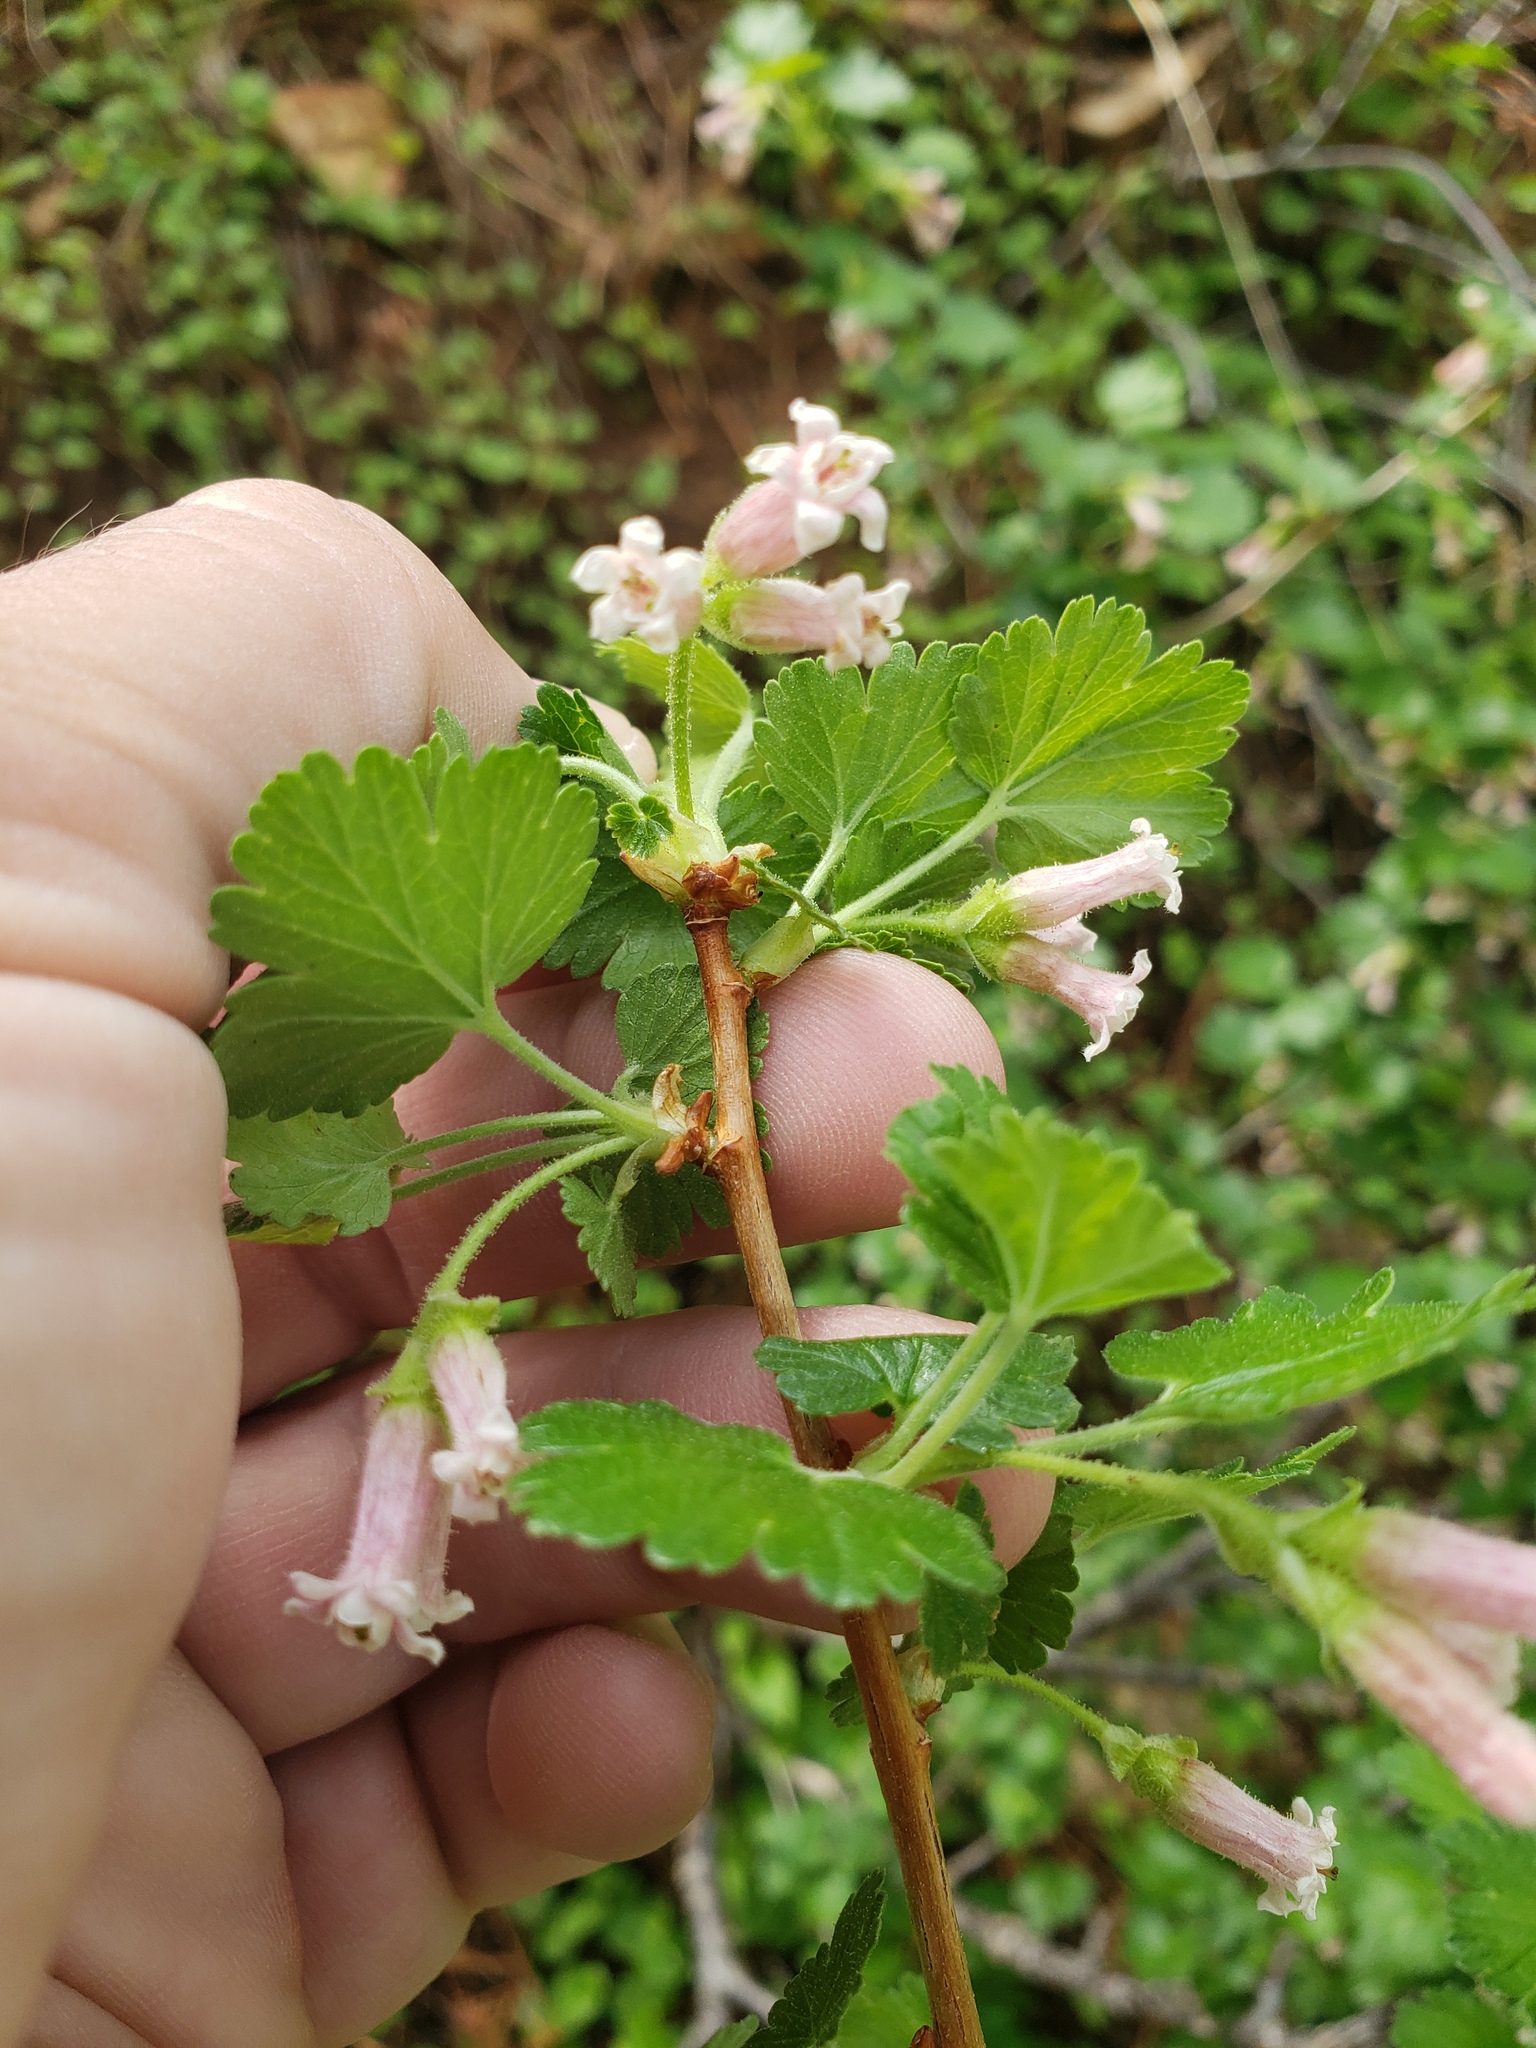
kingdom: Plantae
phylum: Tracheophyta
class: Magnoliopsida
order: Saxifragales
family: Grossulariaceae
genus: Ribes
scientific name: Ribes cereum
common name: Wax currant
